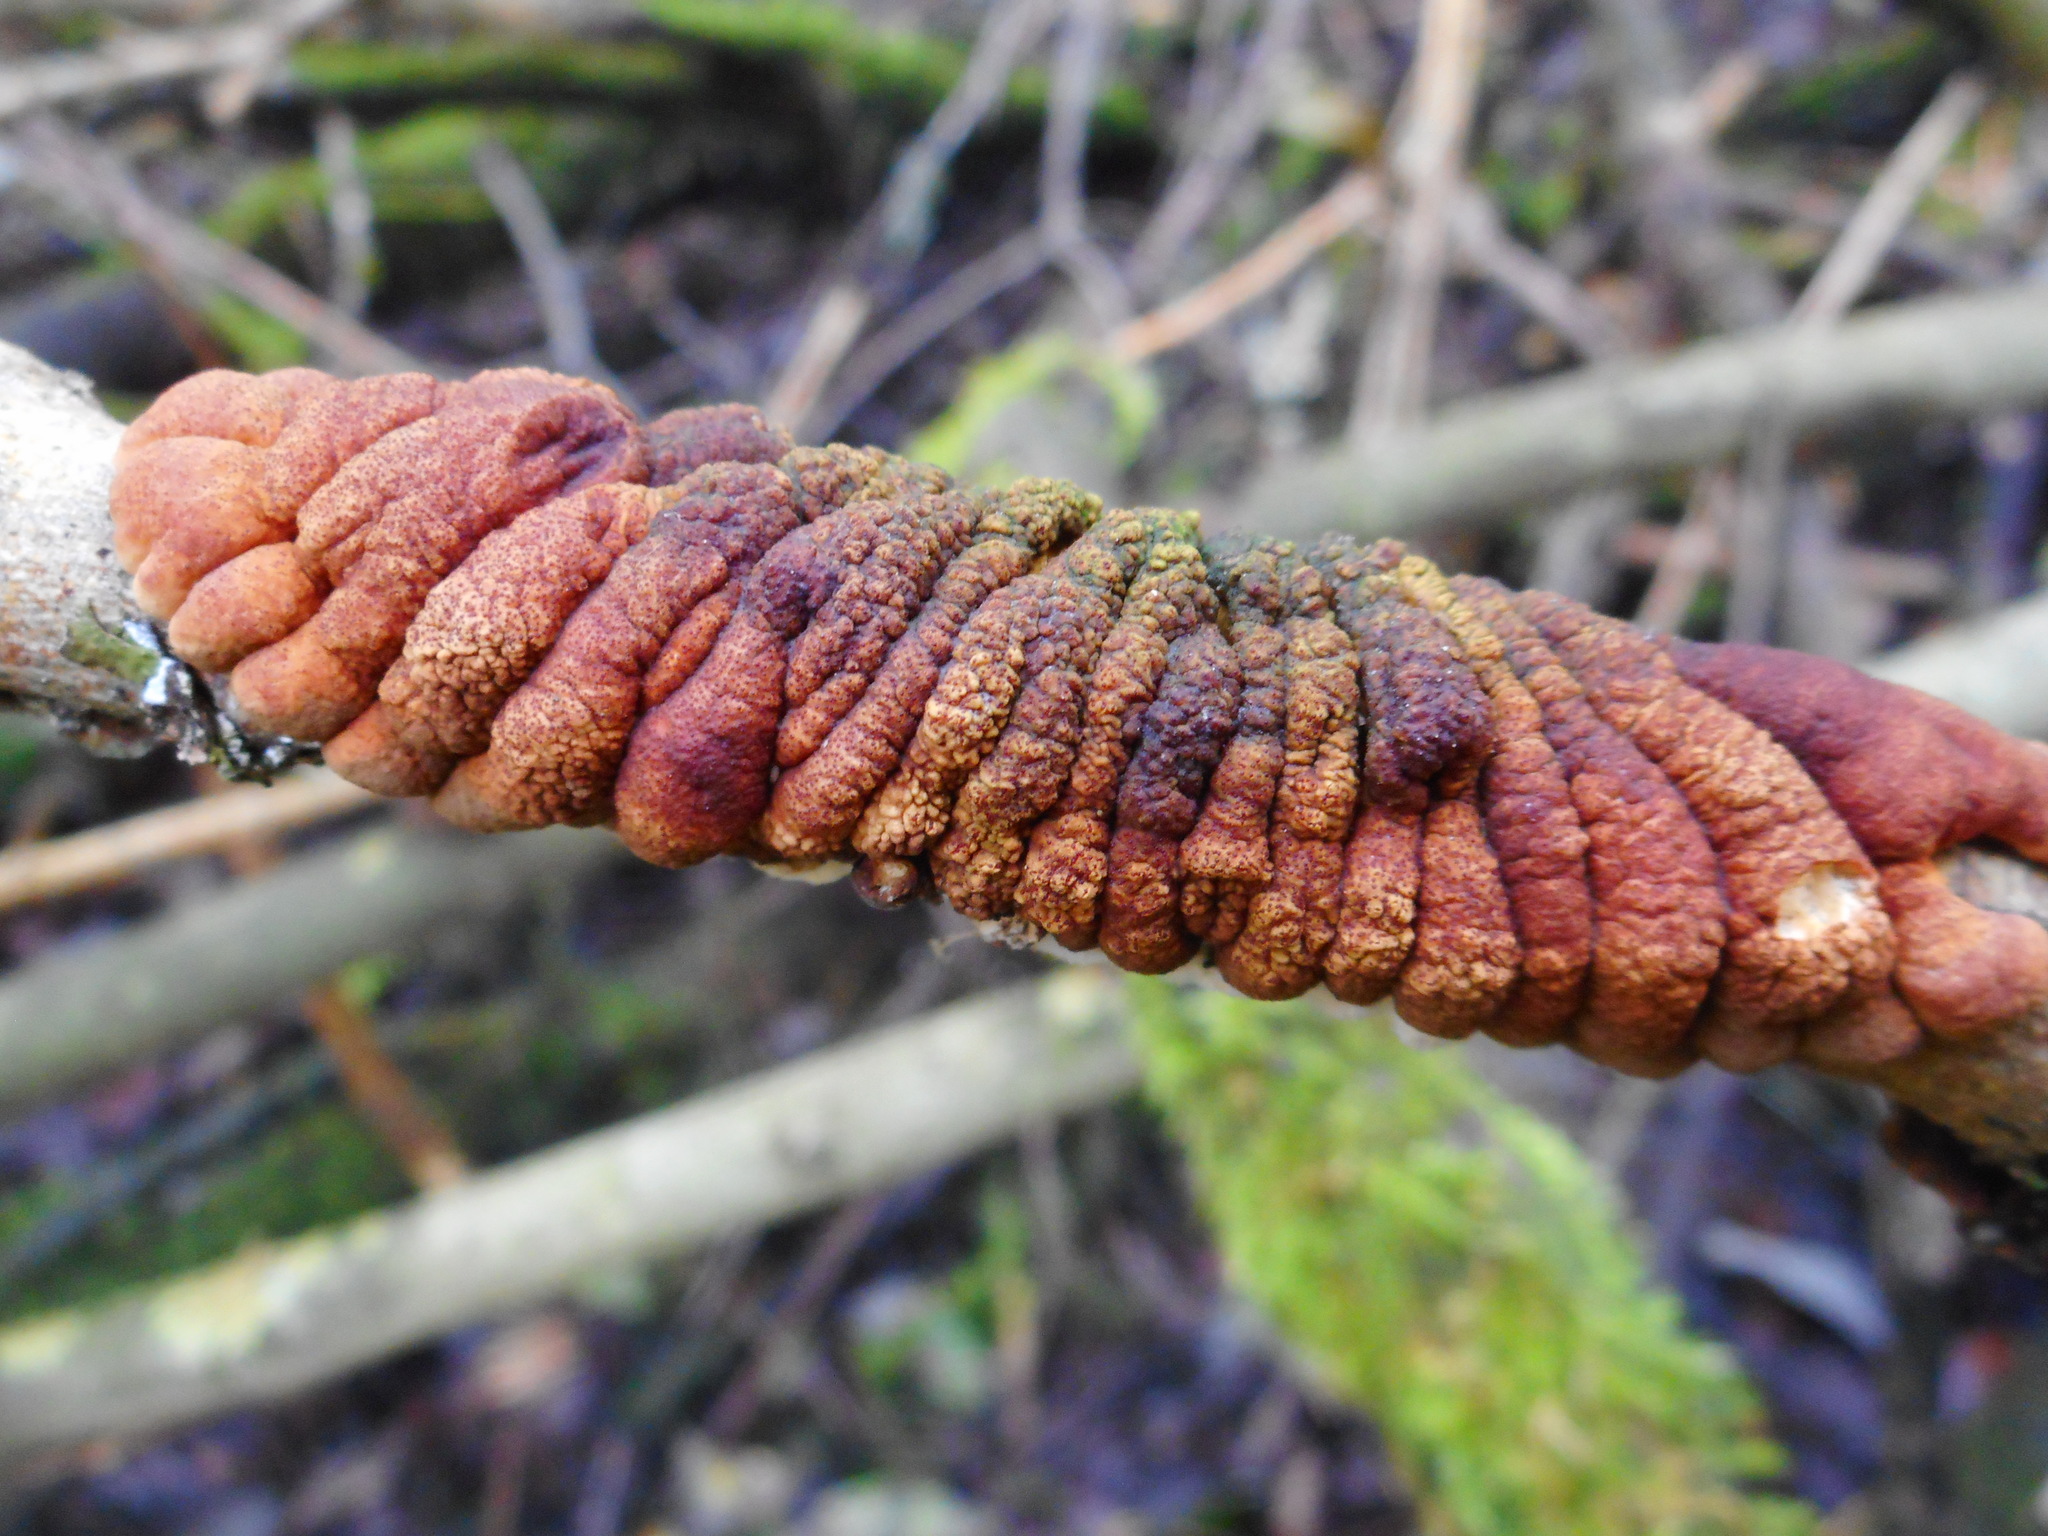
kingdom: Fungi
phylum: Ascomycota
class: Sordariomycetes
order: Hypocreales
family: Hypocreaceae
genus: Hypocreopsis
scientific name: Hypocreopsis lichenoides
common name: Willow gloves
